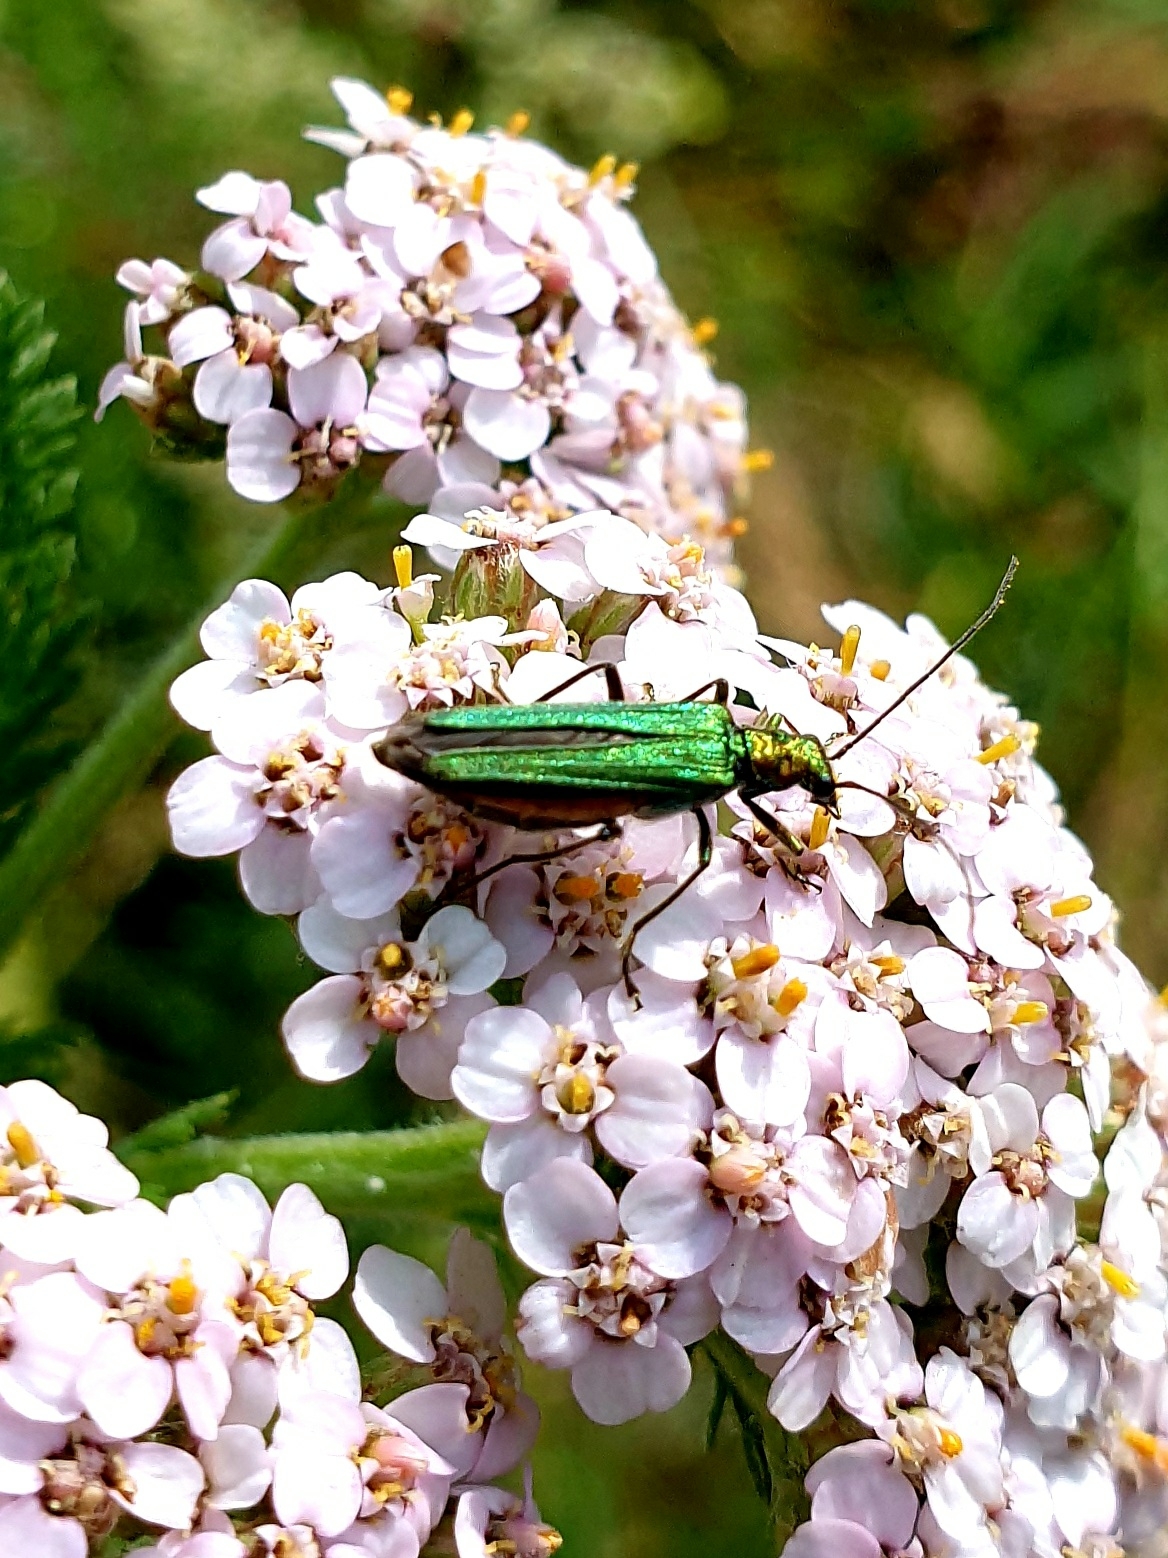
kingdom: Animalia
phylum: Arthropoda
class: Insecta
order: Coleoptera
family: Oedemeridae
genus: Oedemera
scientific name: Oedemera nobilis
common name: Swollen-thighed beetle
